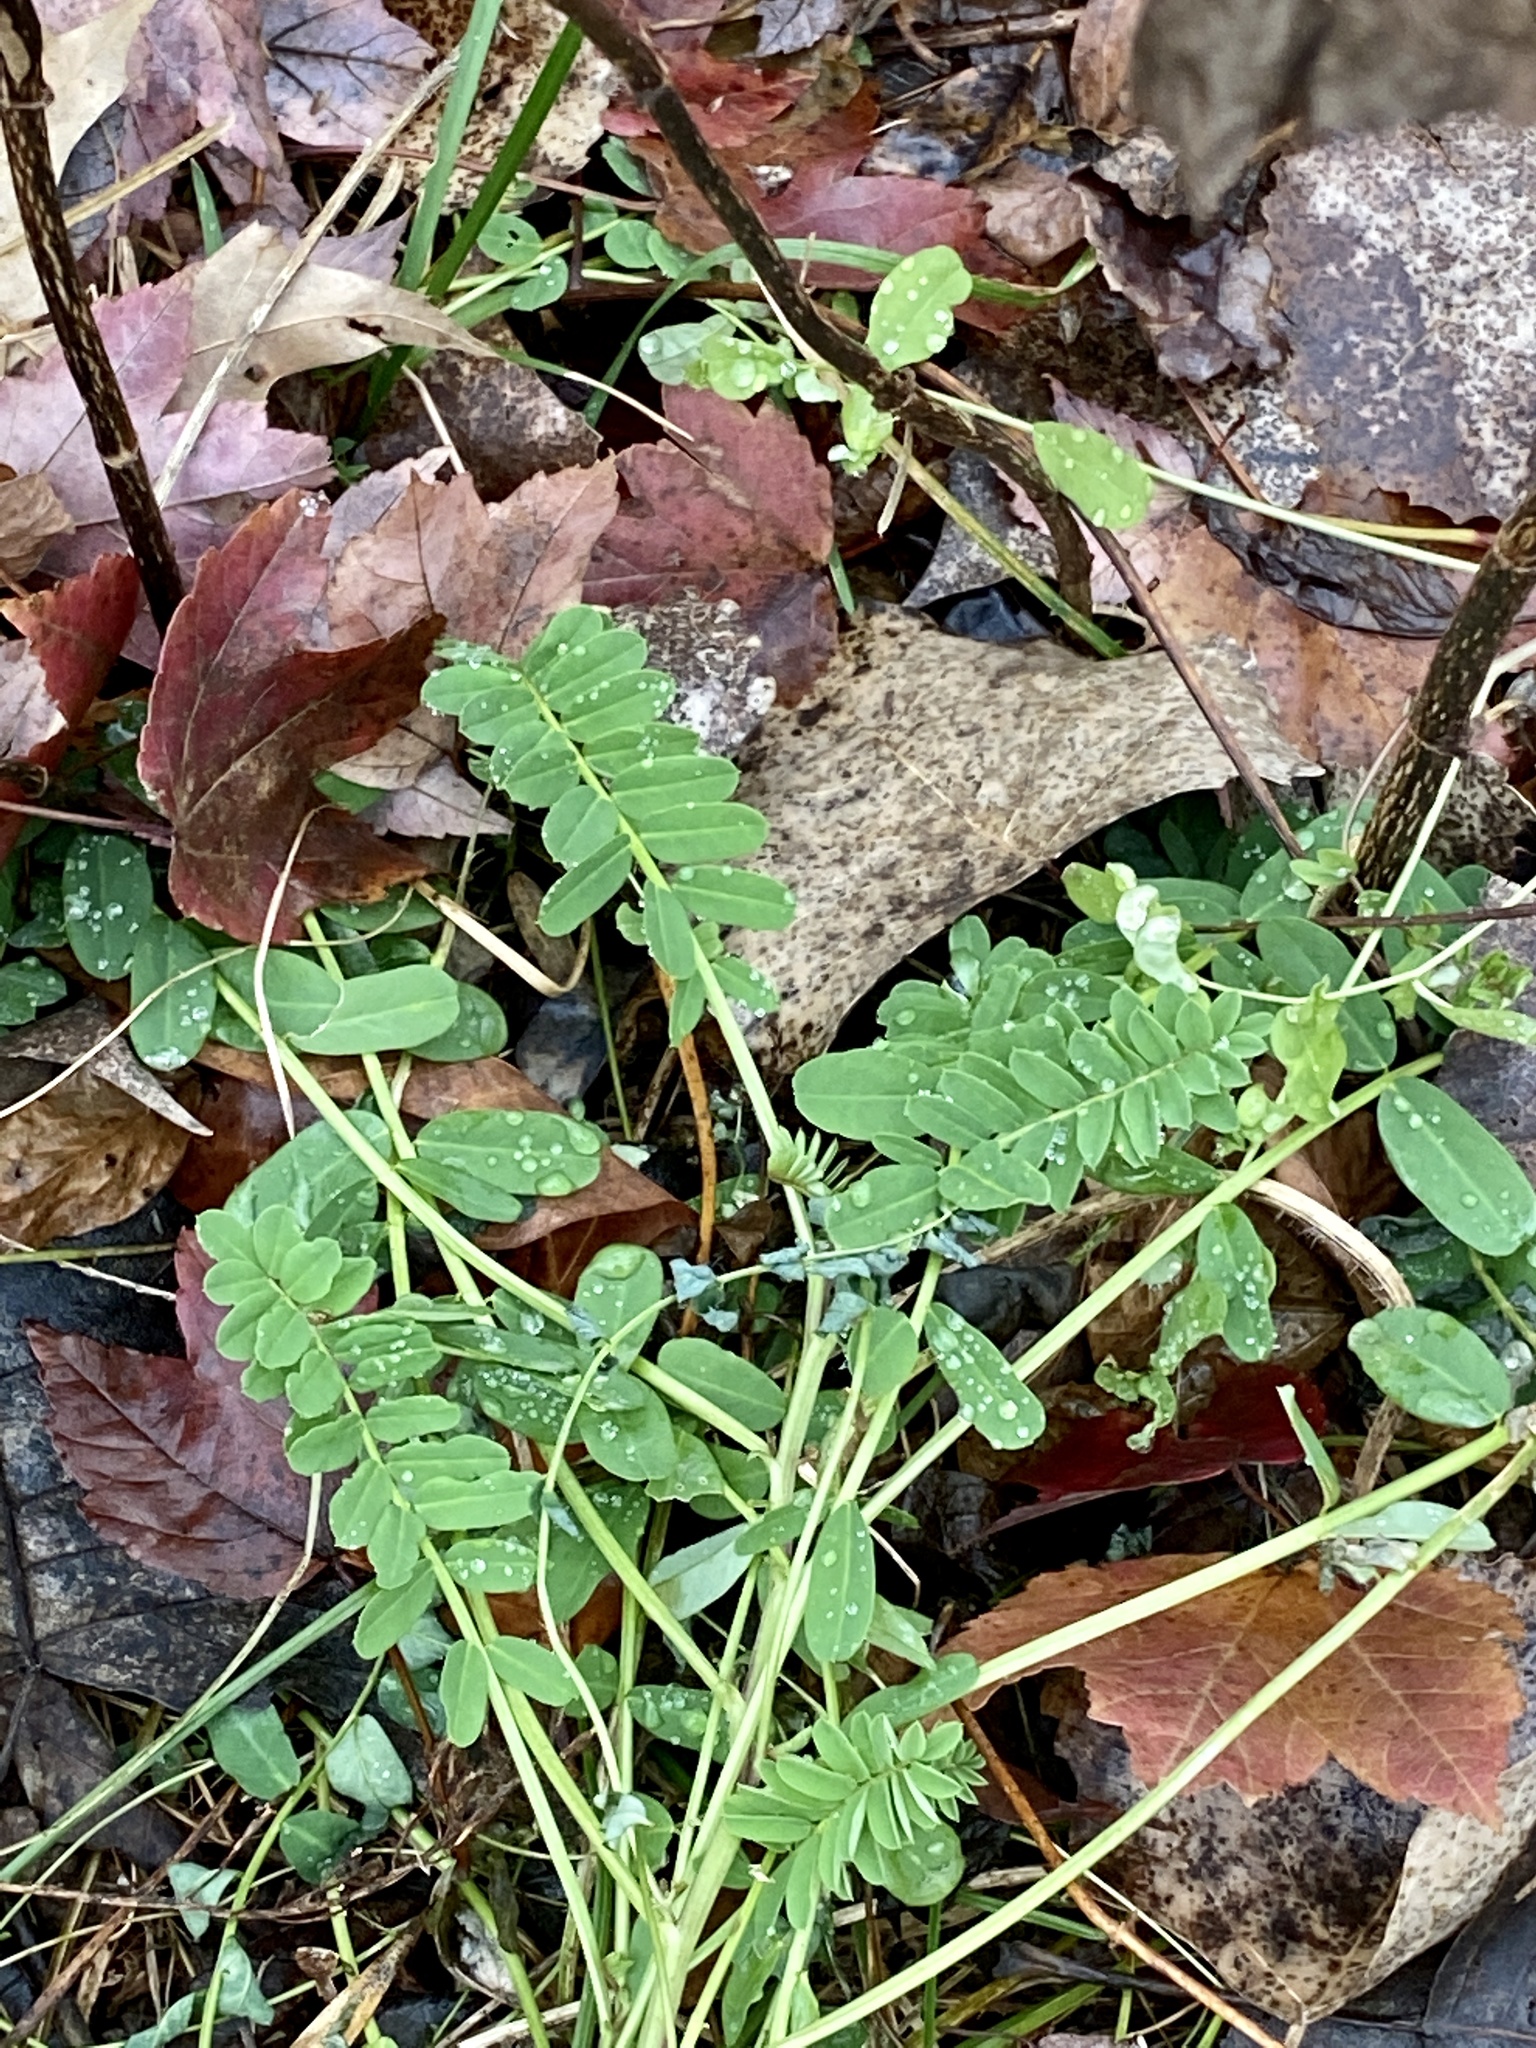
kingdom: Plantae
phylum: Tracheophyta
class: Magnoliopsida
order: Fabales
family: Fabaceae
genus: Coronilla
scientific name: Coronilla varia
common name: Crownvetch
